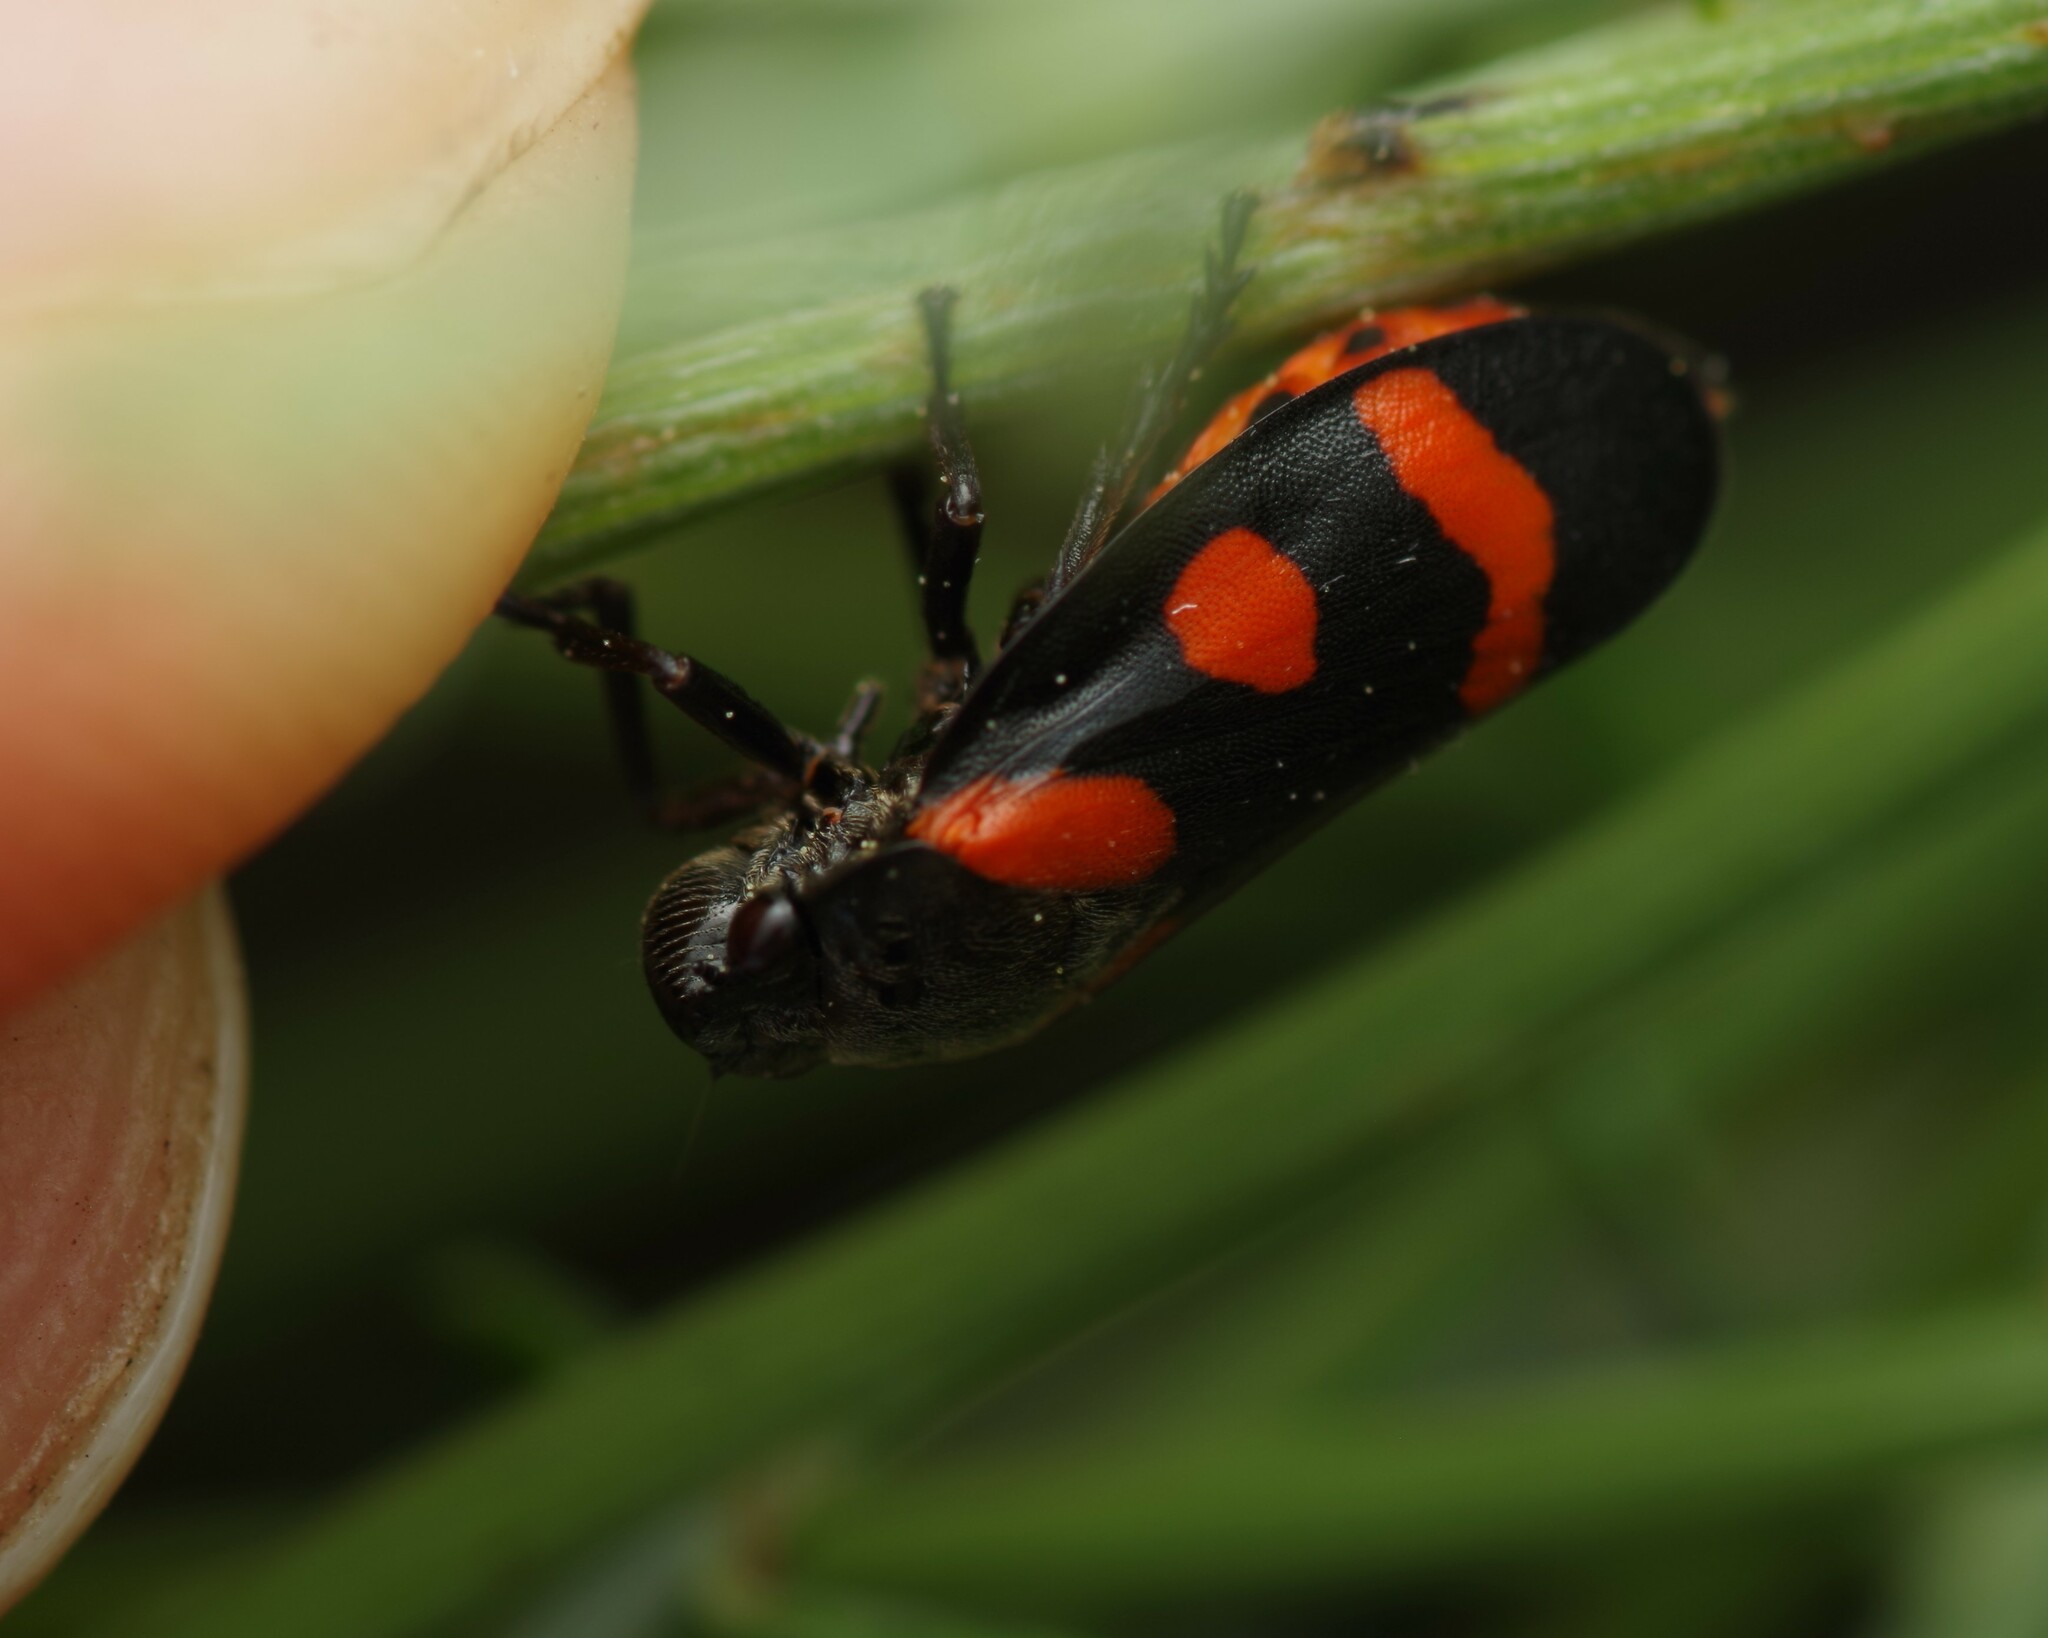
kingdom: Animalia
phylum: Arthropoda
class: Insecta
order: Hemiptera
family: Cercopidae
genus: Cercopis
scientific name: Cercopis sanguinolenta
